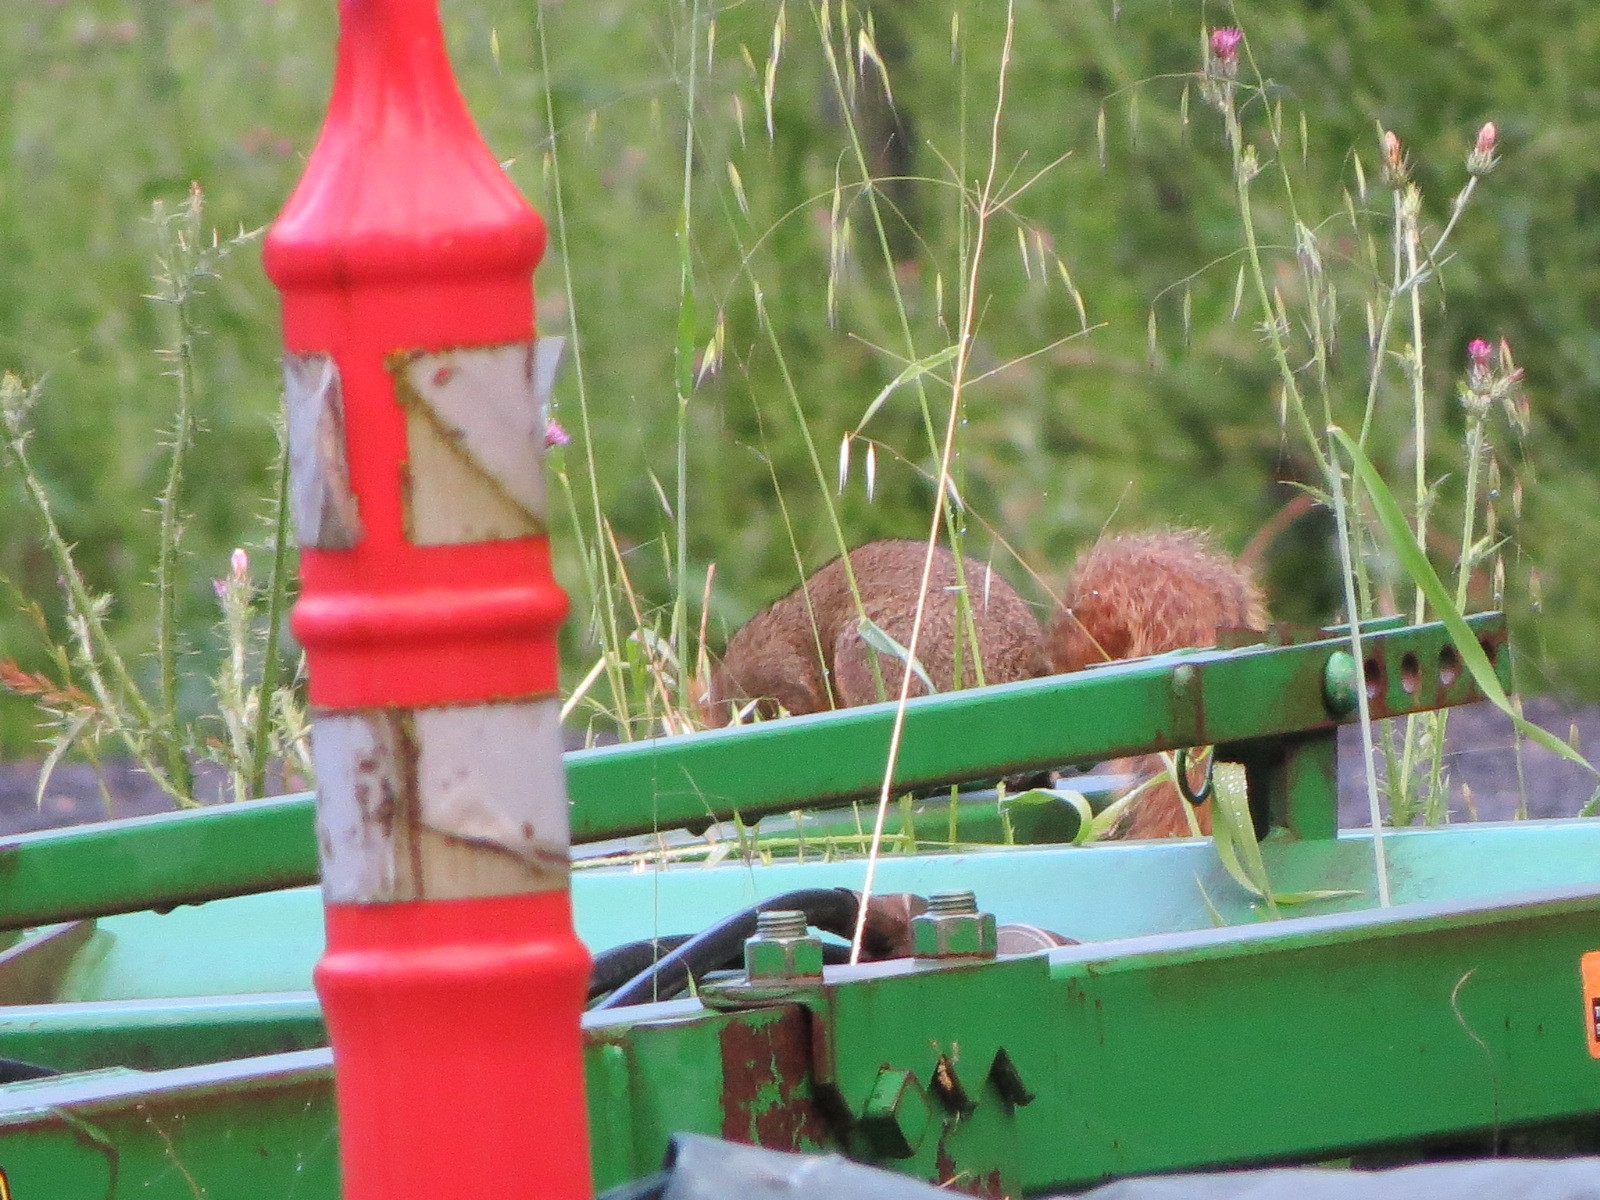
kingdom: Animalia
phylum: Chordata
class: Mammalia
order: Rodentia
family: Sciuridae
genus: Sciurus
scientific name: Sciurus niger
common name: Fox squirrel
